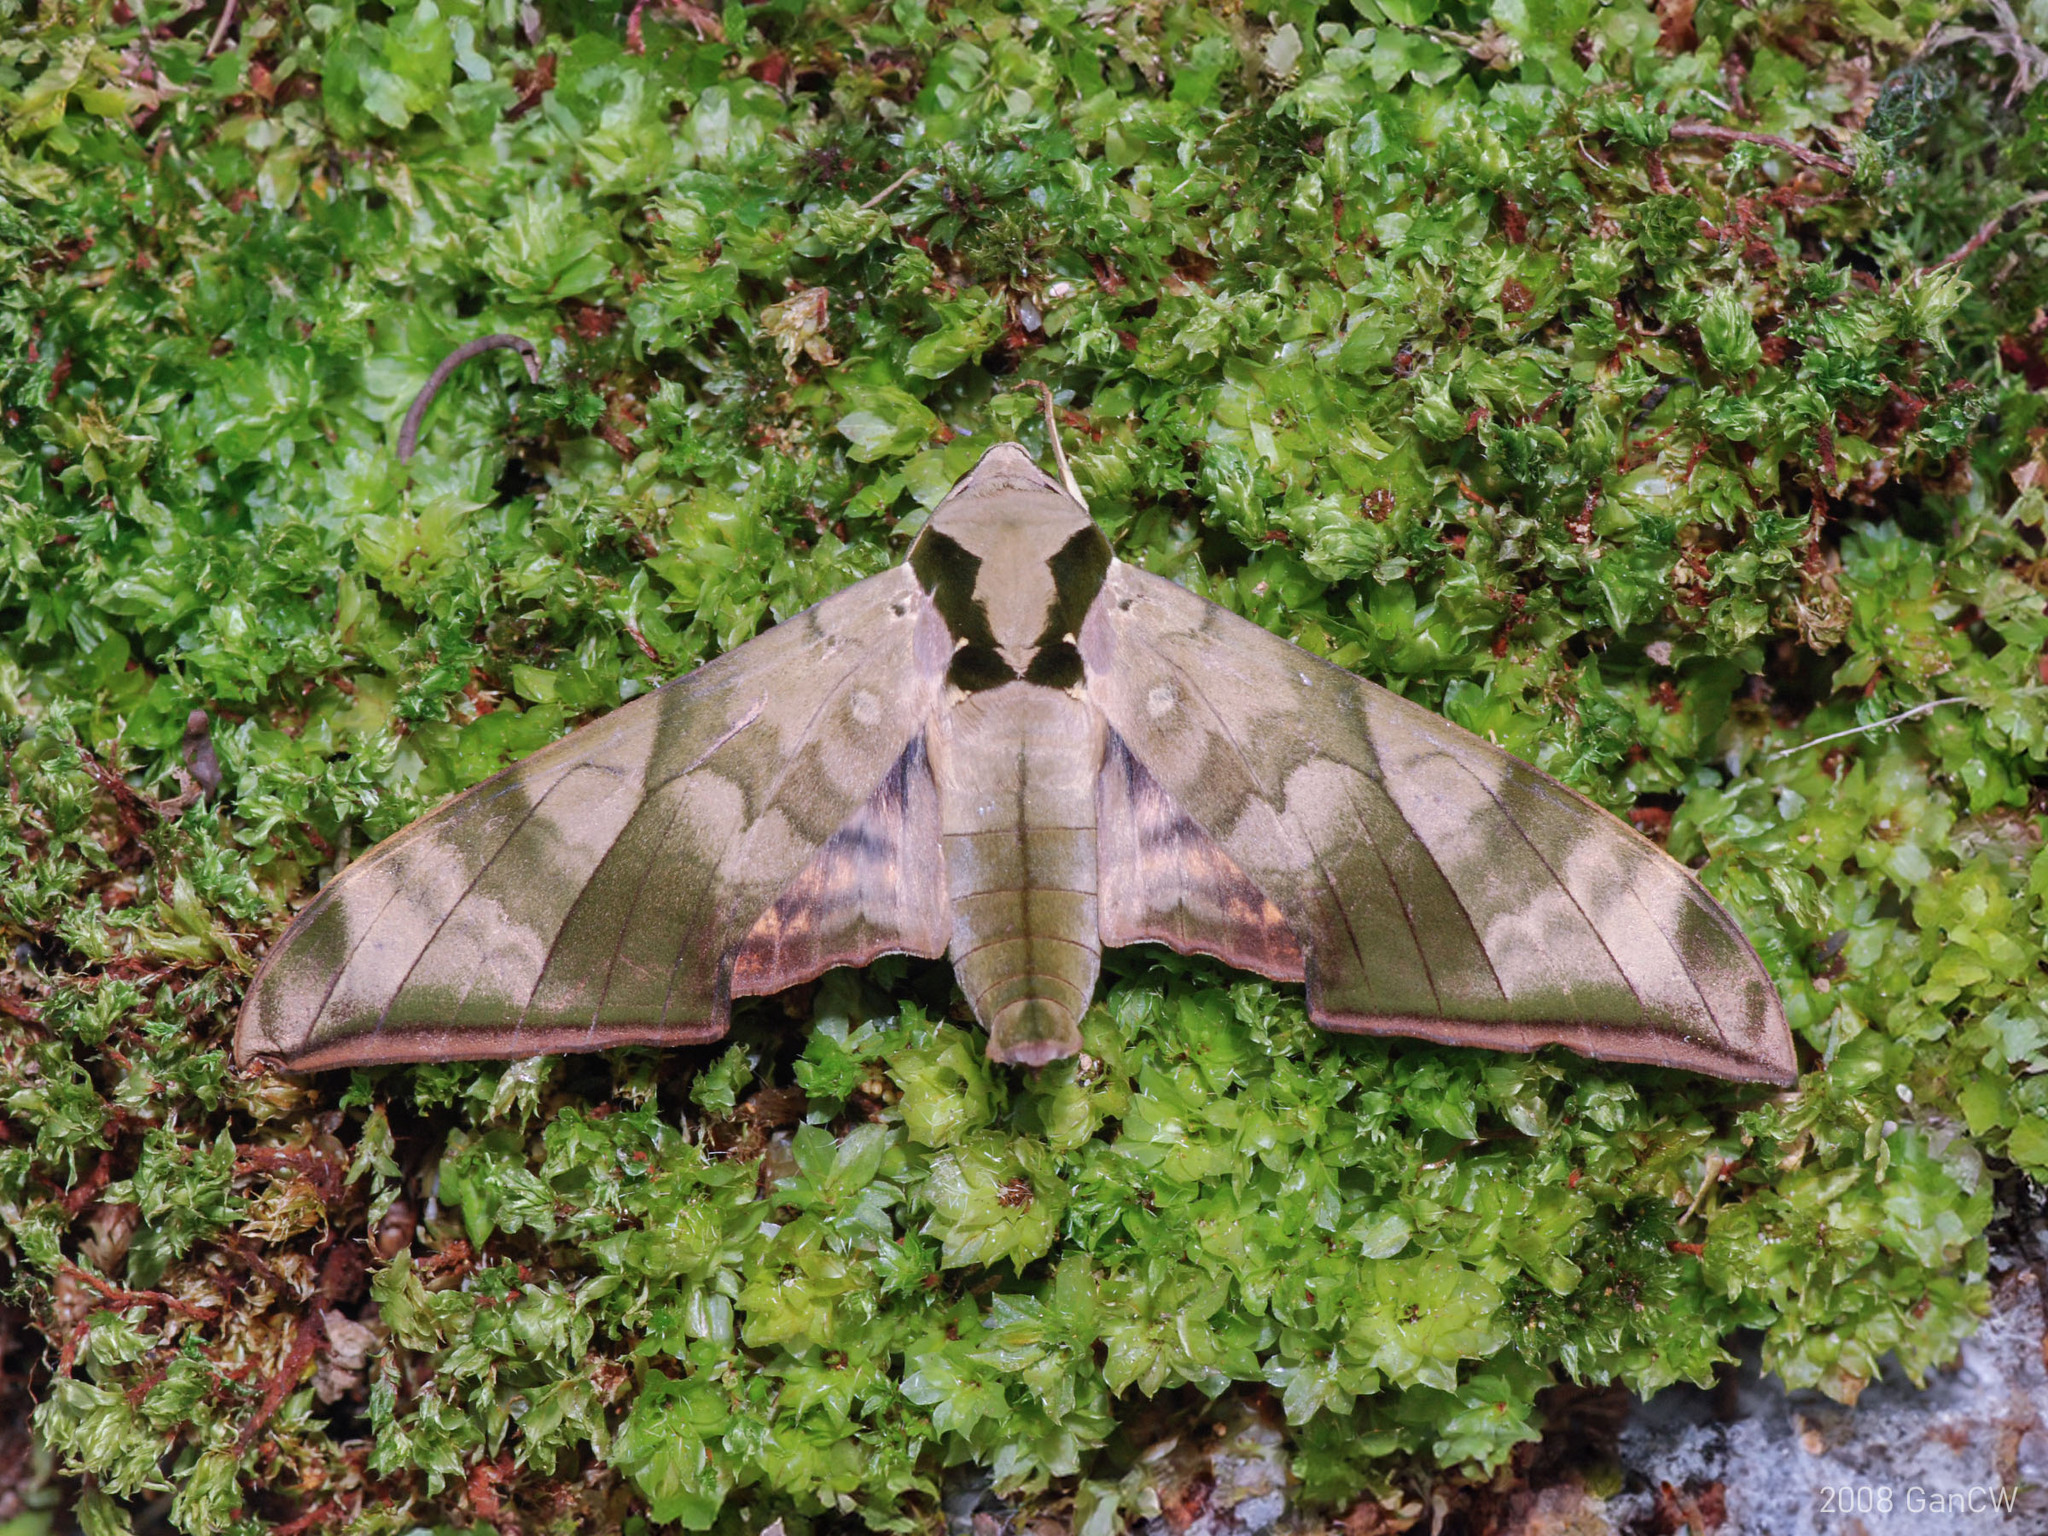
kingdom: Animalia
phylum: Arthropoda
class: Insecta
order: Lepidoptera
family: Sphingidae
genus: Ambulyx
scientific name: Ambulyx tattina
